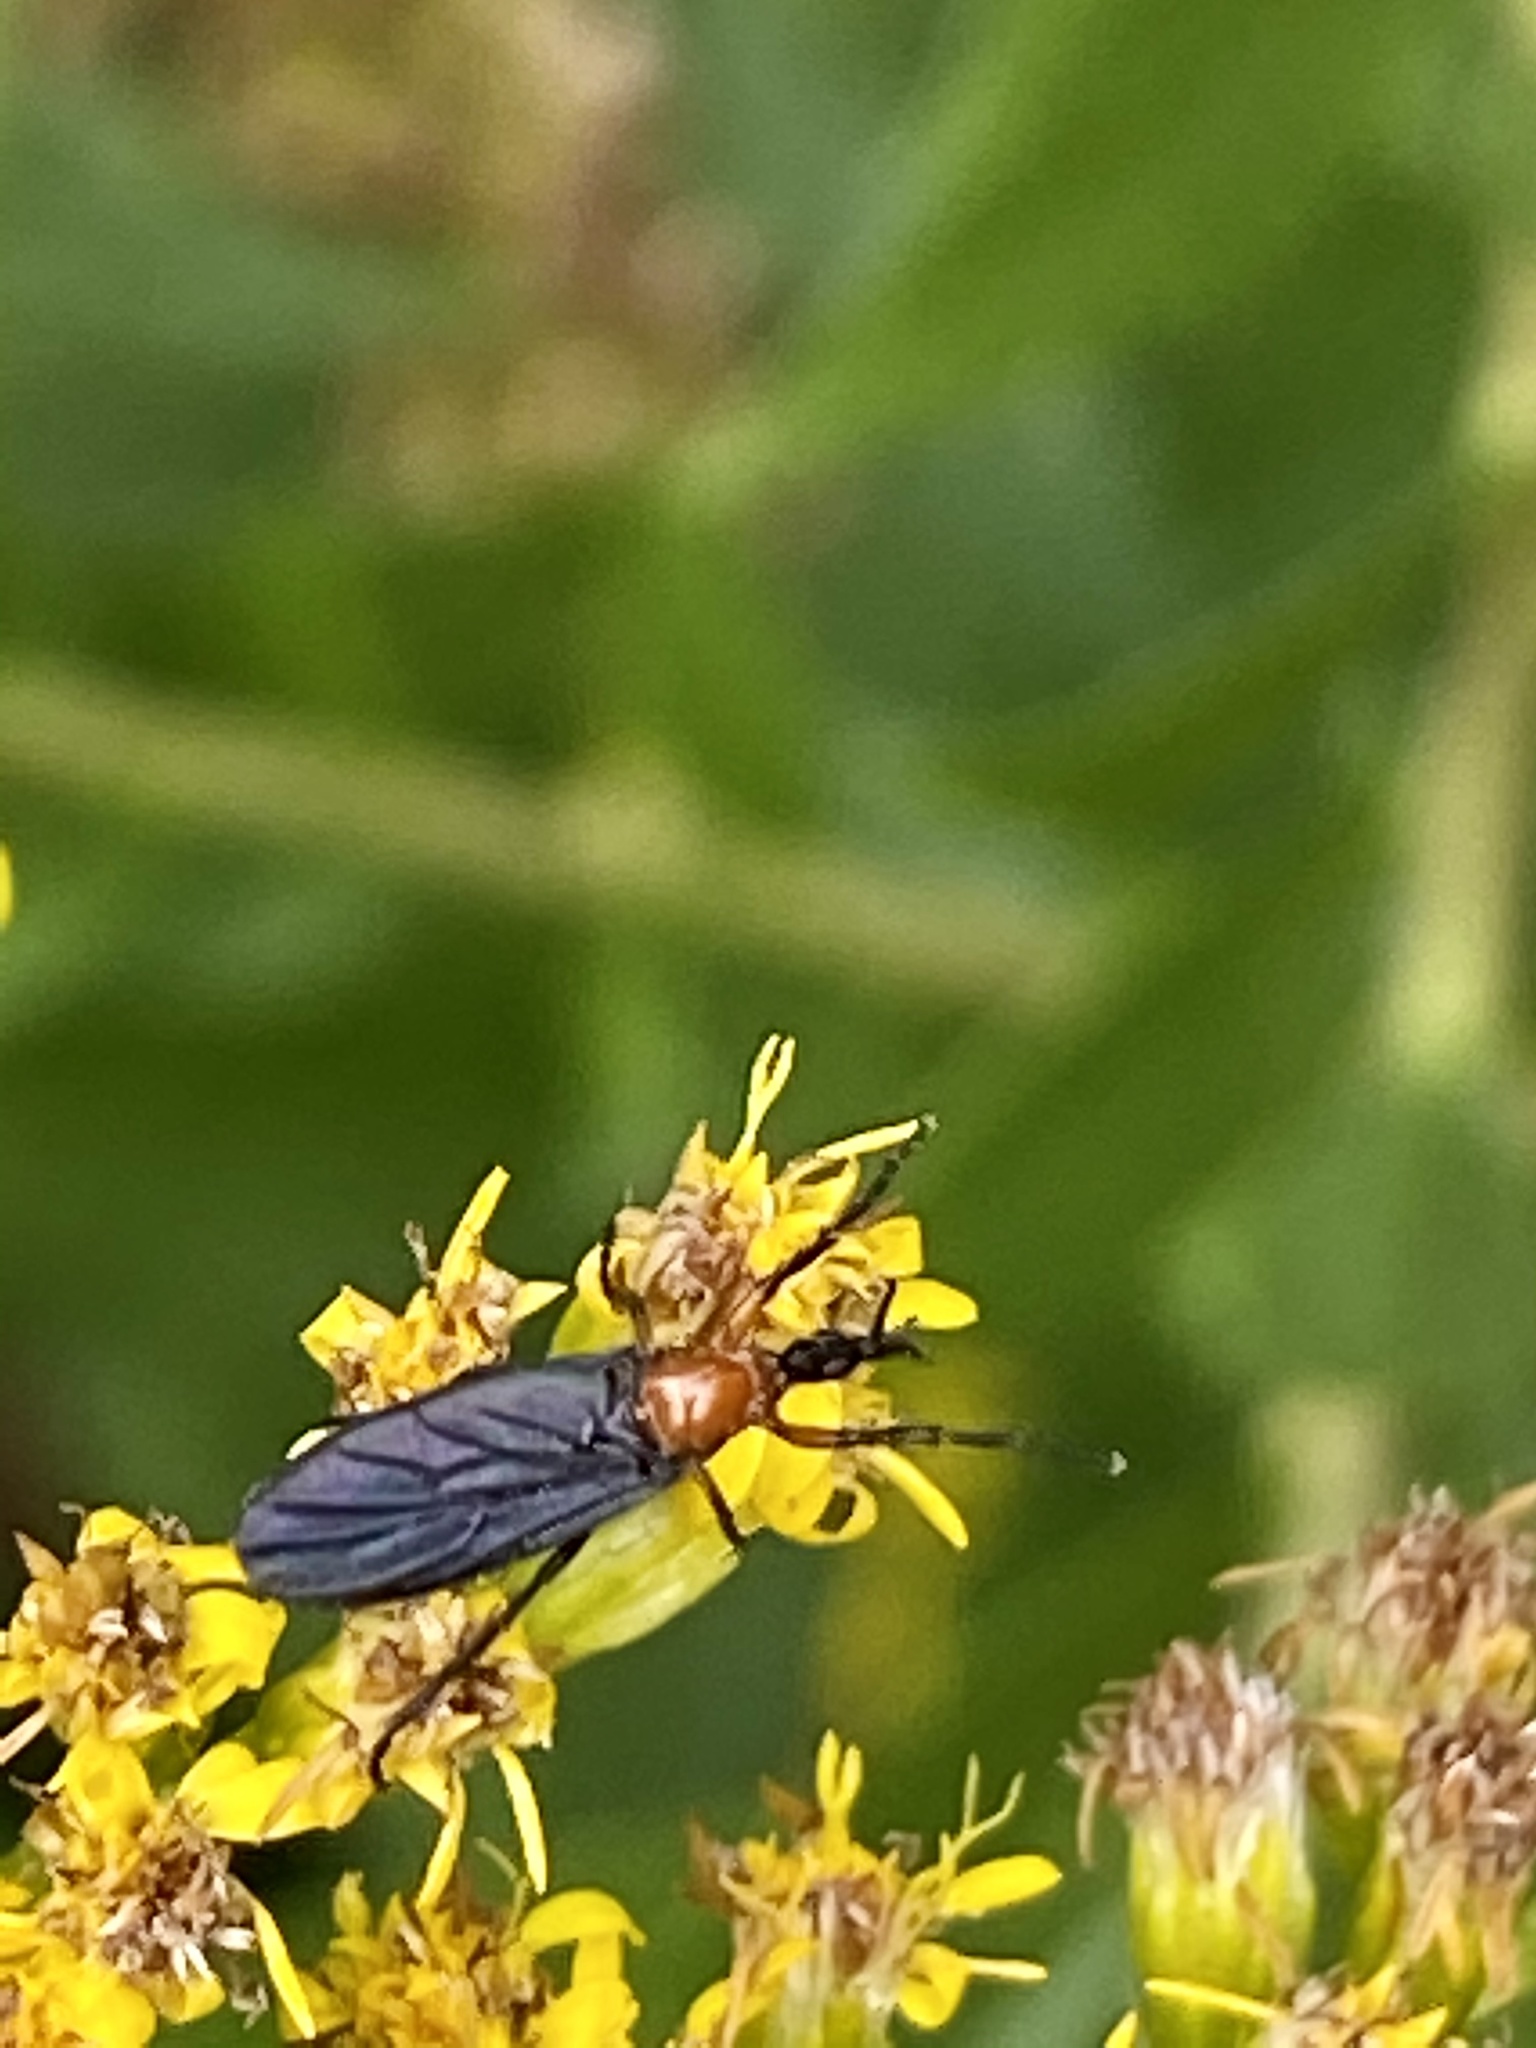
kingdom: Animalia
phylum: Arthropoda
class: Insecta
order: Diptera
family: Bibionidae
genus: Dilophus
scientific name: Dilophus spinipes
